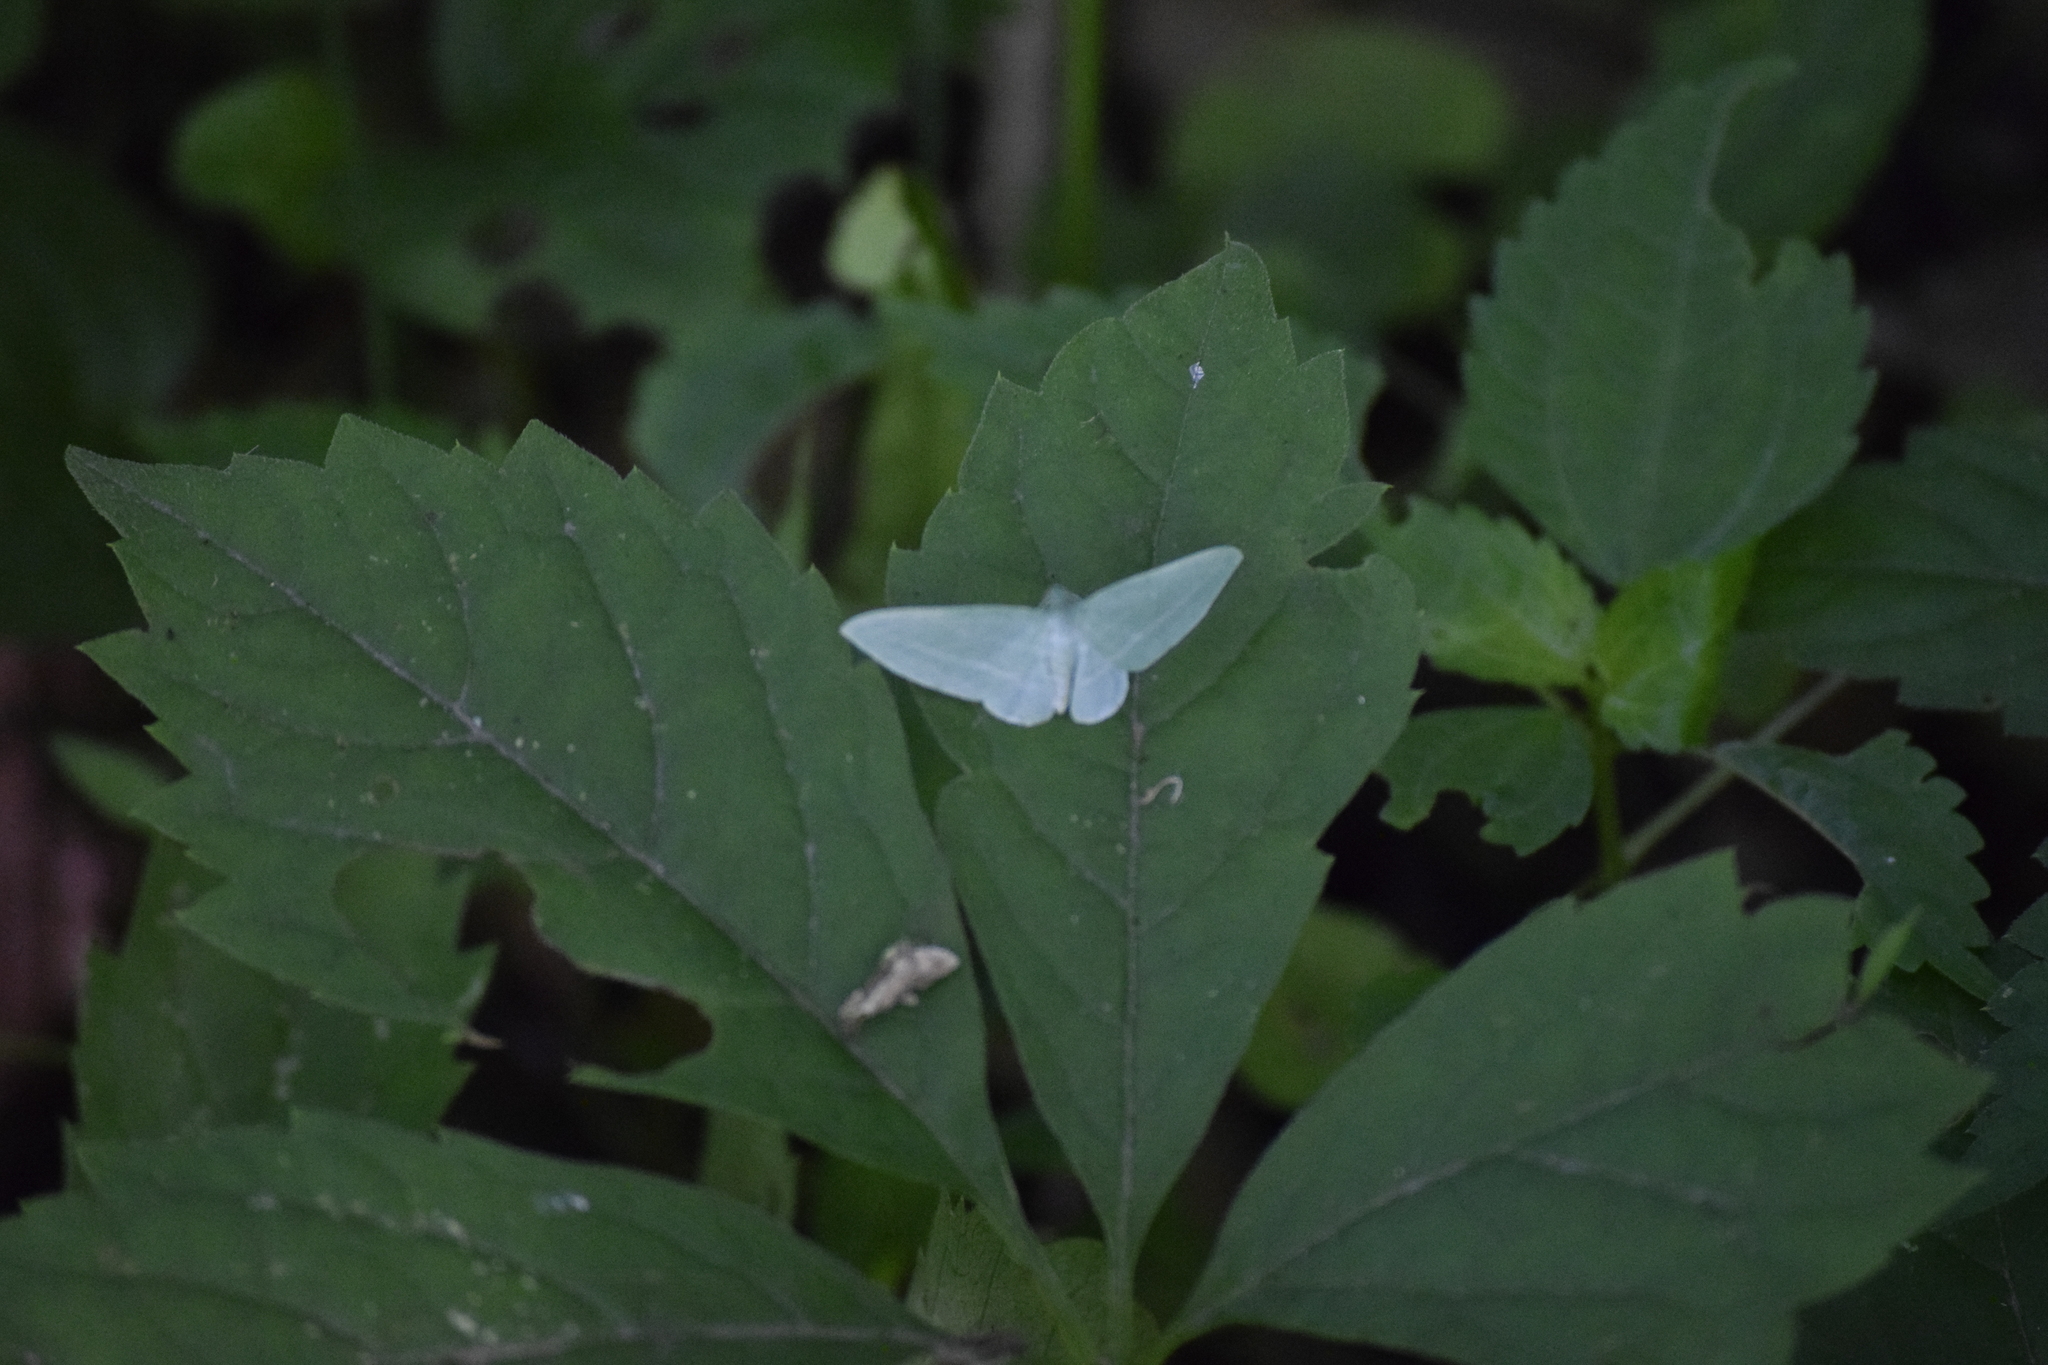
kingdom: Animalia
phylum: Arthropoda
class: Insecta
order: Lepidoptera
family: Geometridae
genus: Dyspteris
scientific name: Dyspteris abortivaria
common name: Bad-wing
